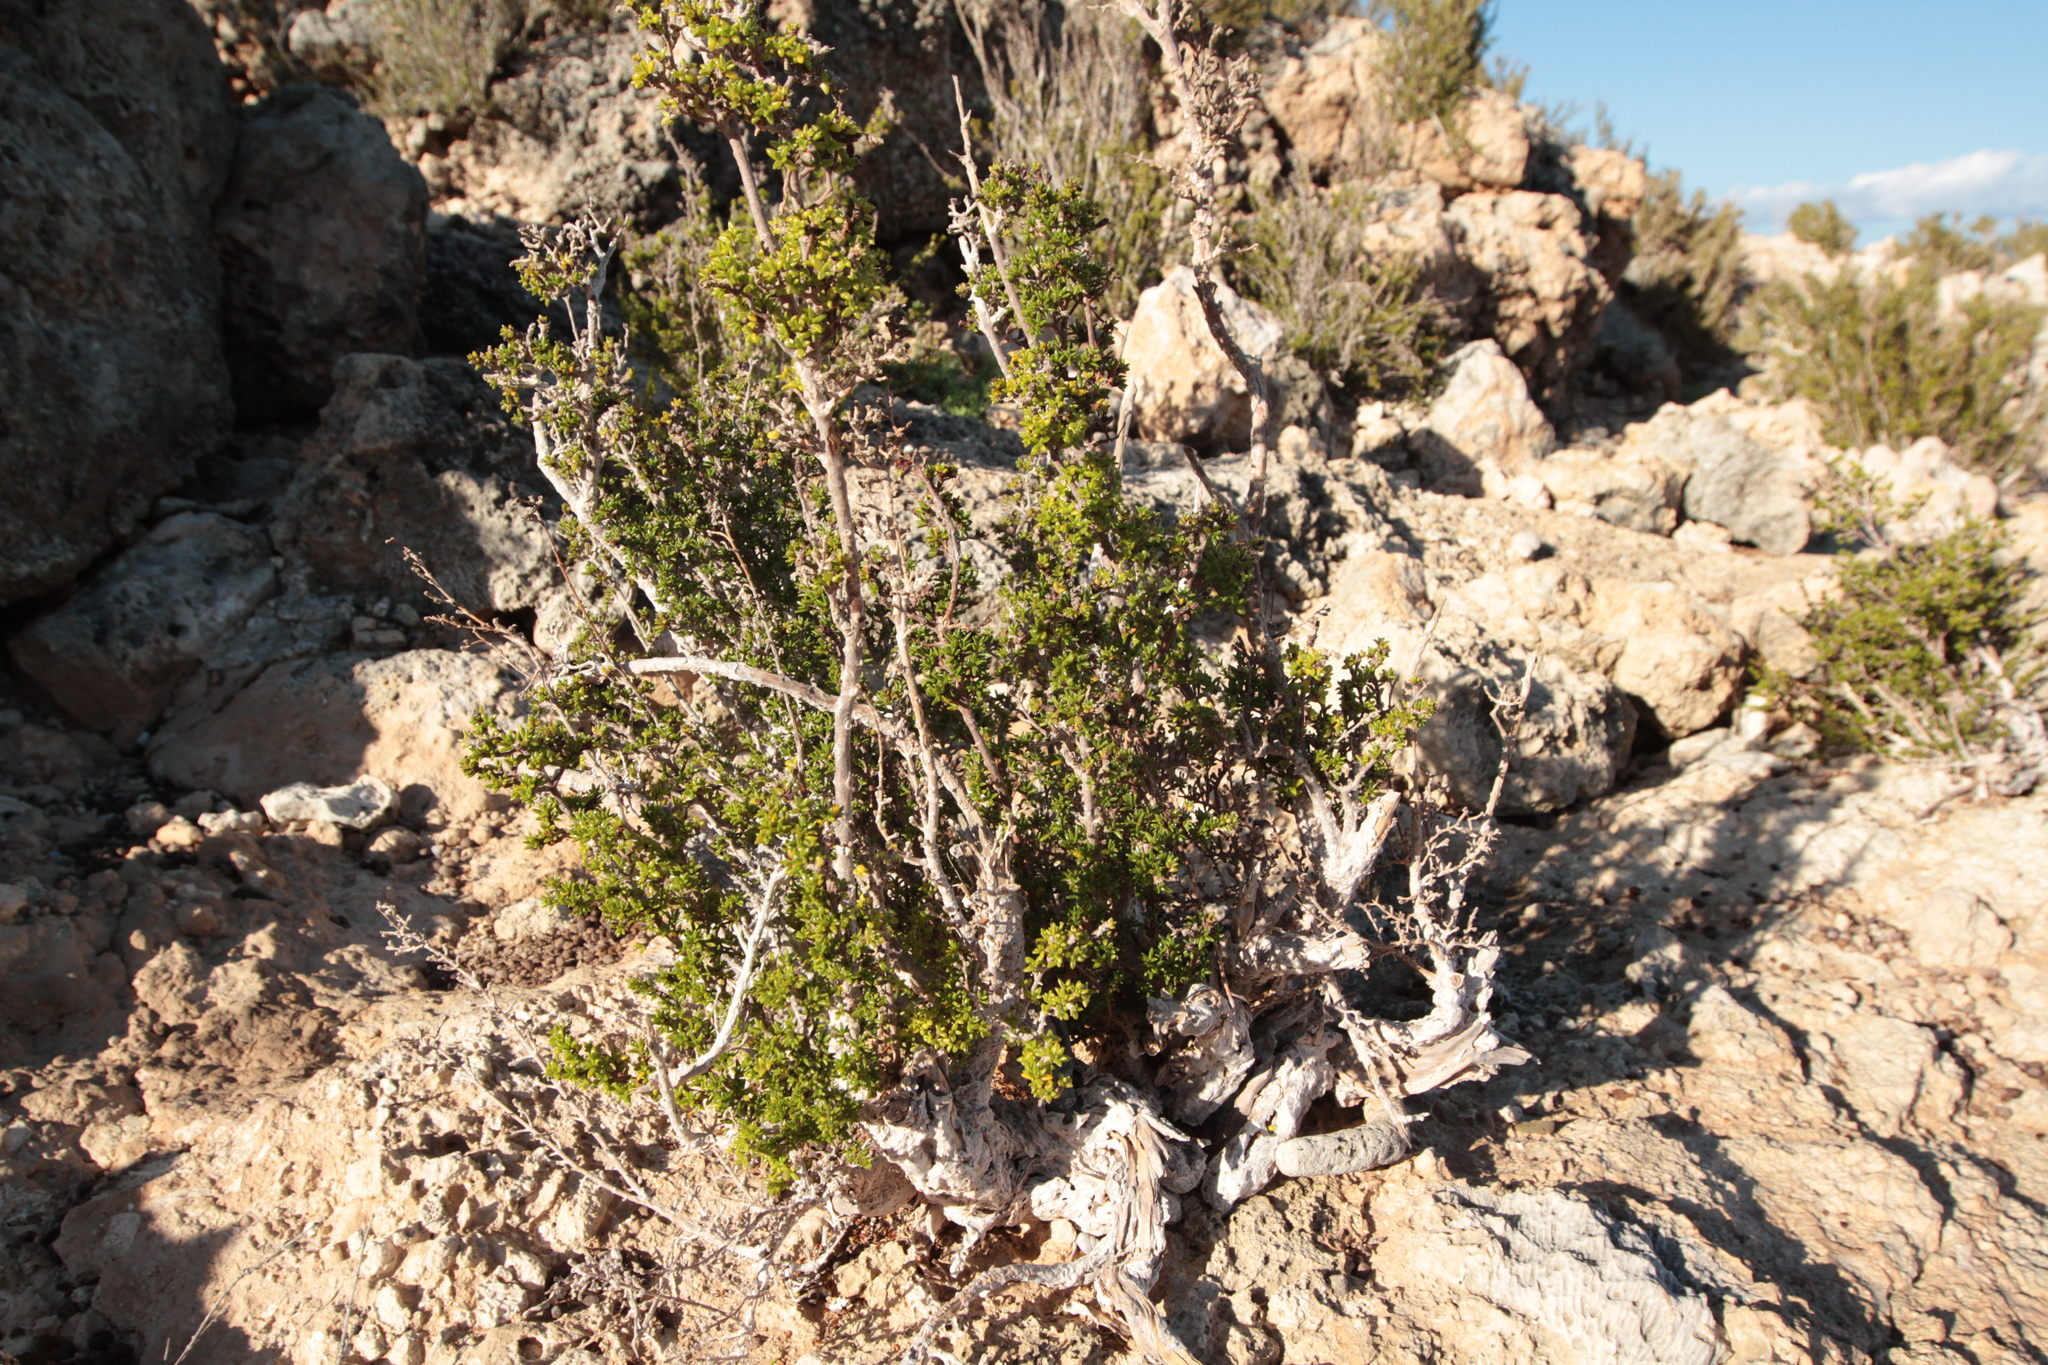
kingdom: Plantae
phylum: Tracheophyta
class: Magnoliopsida
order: Gentianales
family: Rubiaceae
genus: Rachicallis
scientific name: Rachicallis americana
